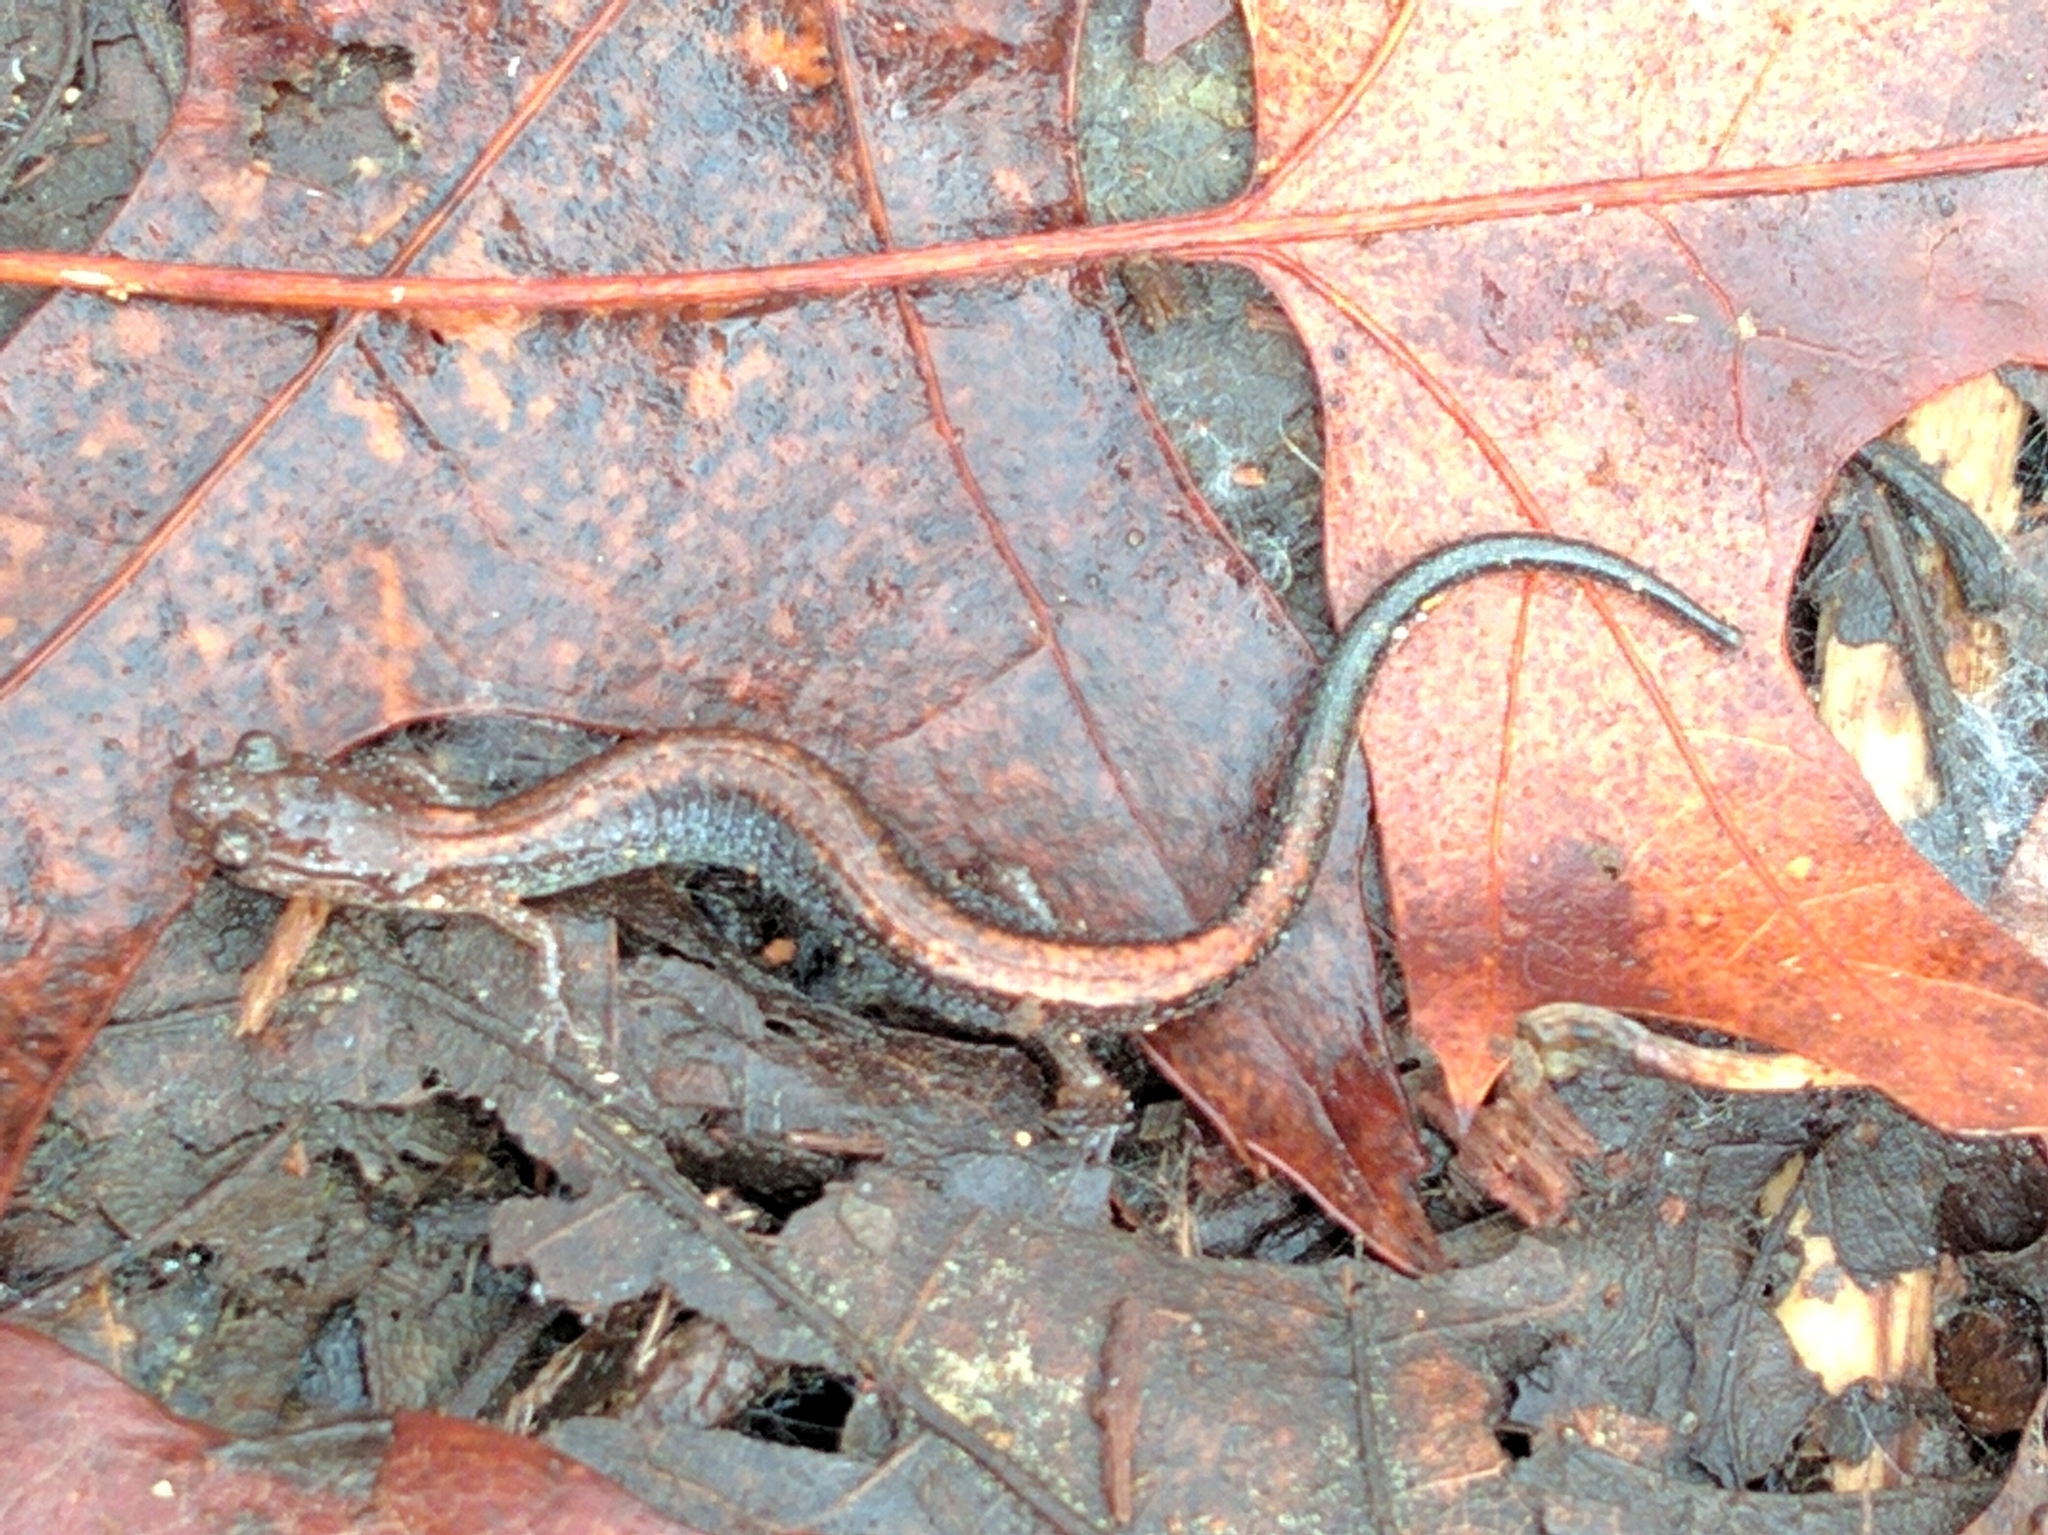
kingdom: Animalia
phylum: Chordata
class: Amphibia
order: Caudata
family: Plethodontidae
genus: Plethodon
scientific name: Plethodon cinereus
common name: Redback salamander
